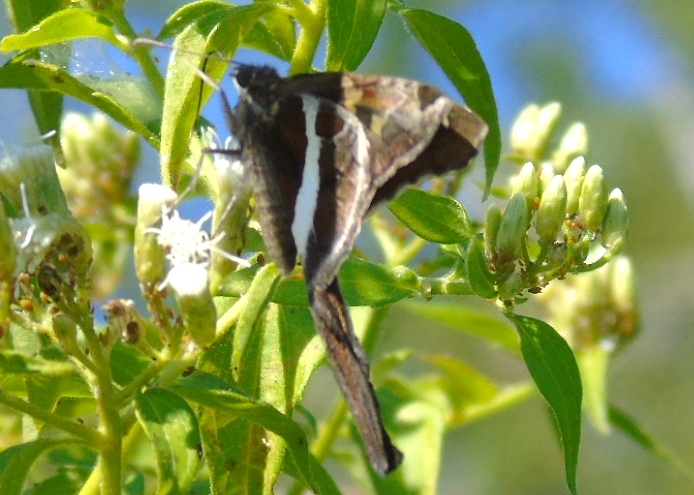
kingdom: Animalia
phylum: Arthropoda
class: Insecta
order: Lepidoptera
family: Hesperiidae
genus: Chioides
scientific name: Chioides catillus
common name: Silverbanded skipper
